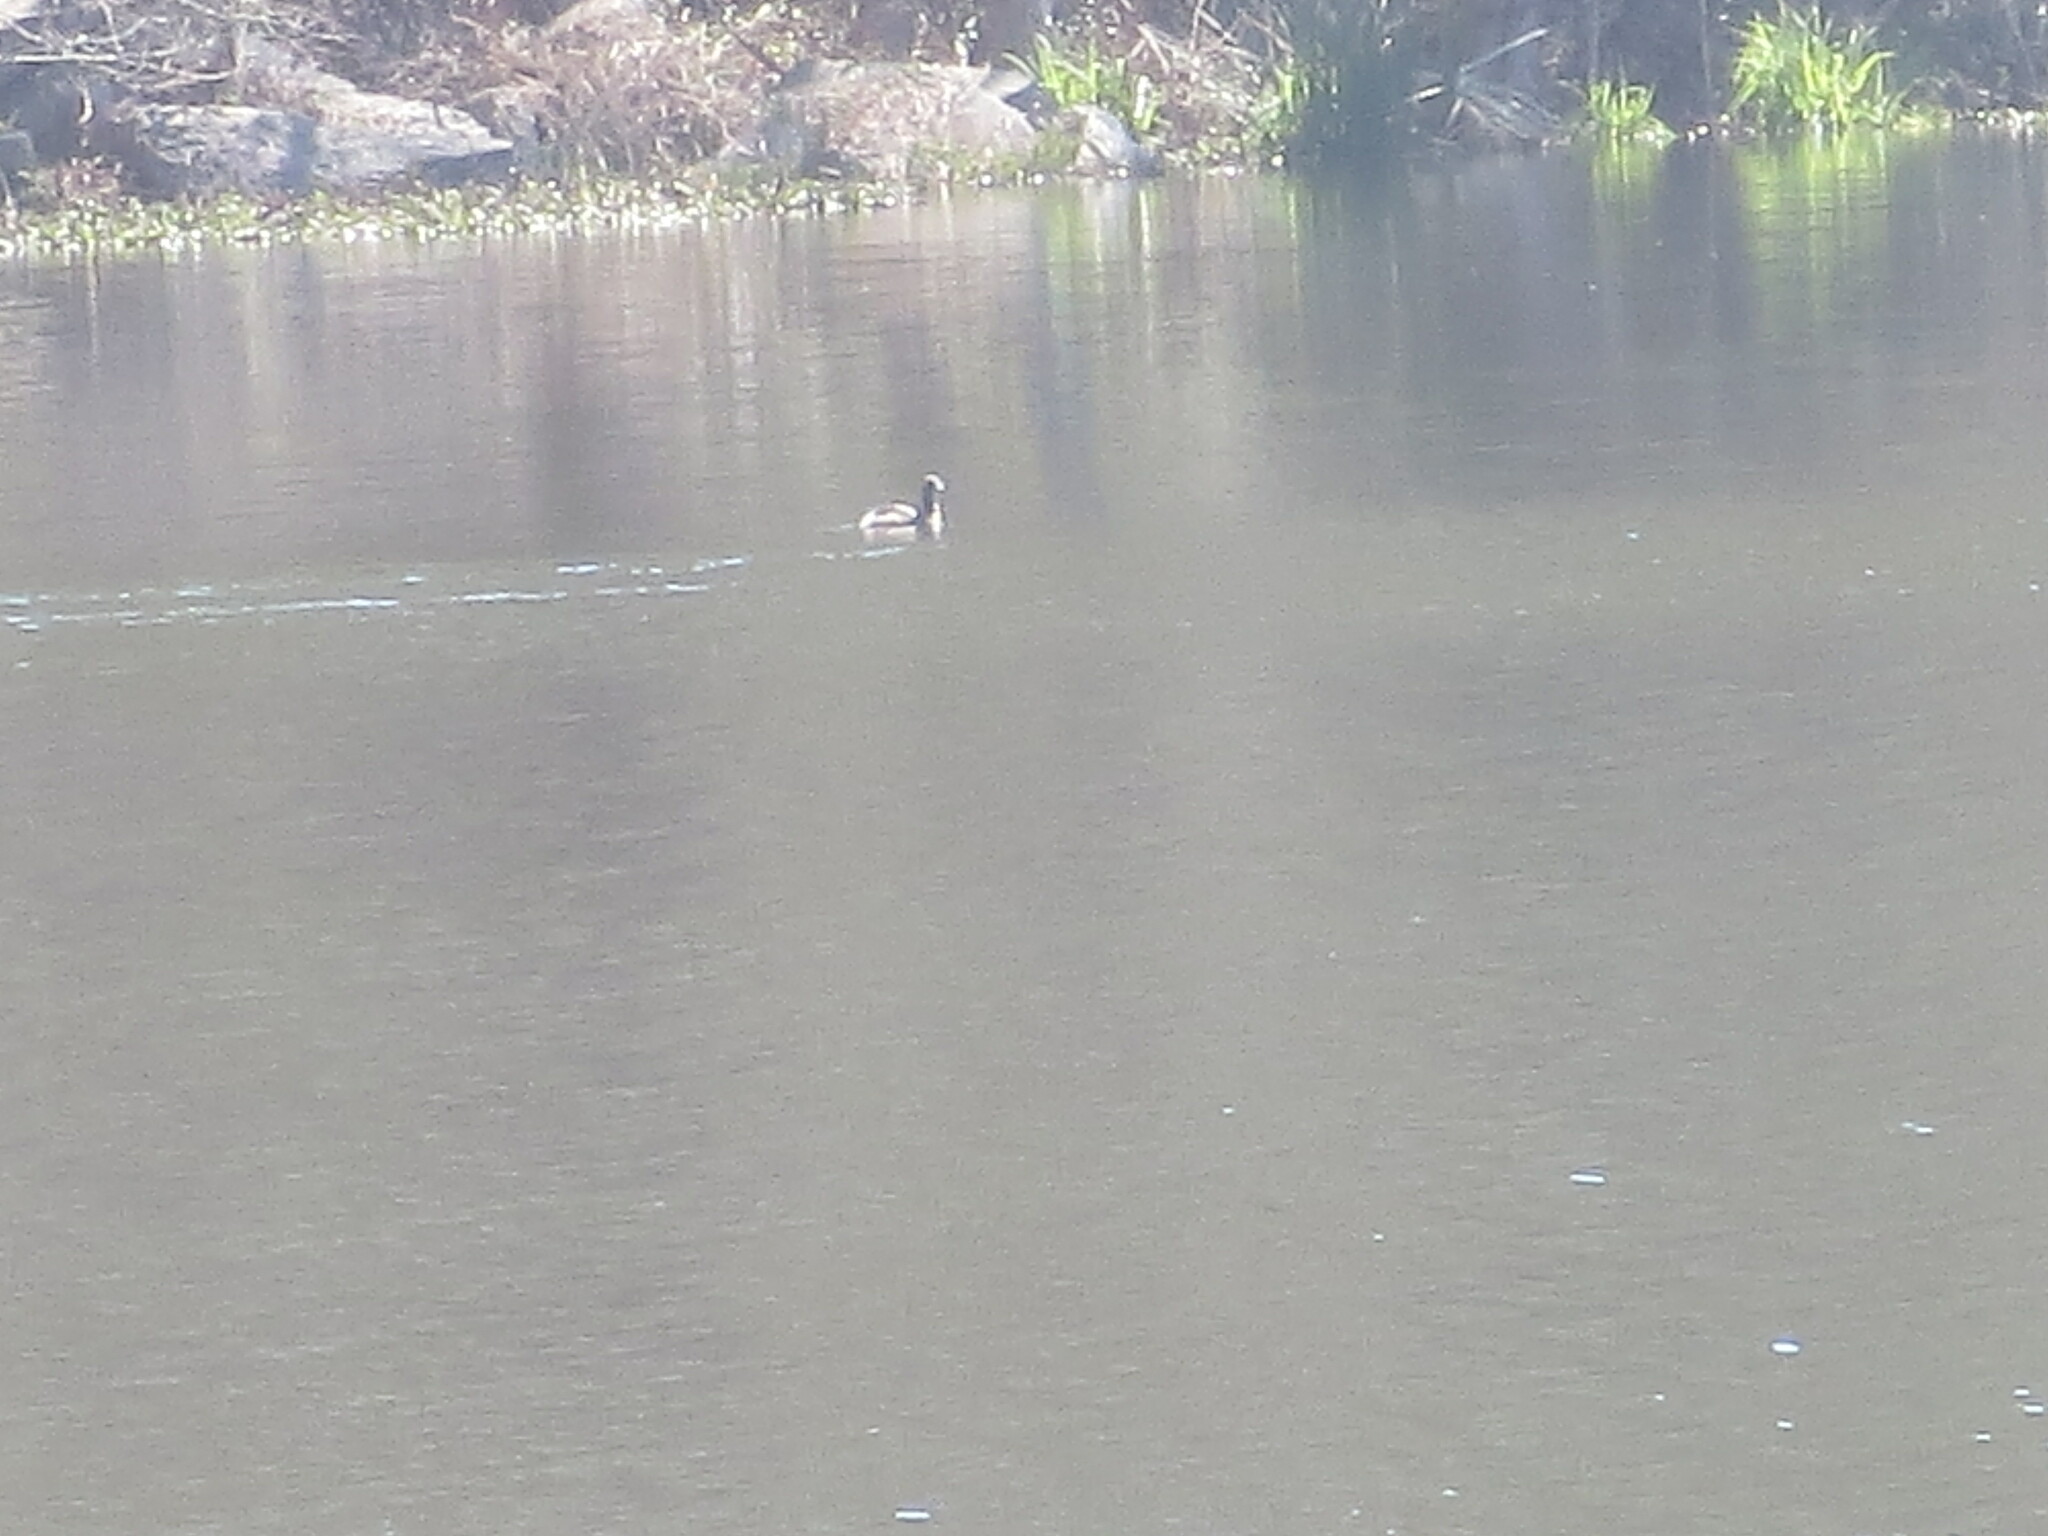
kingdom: Animalia
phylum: Chordata
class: Aves
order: Podicipediformes
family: Podicipedidae
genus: Podilymbus
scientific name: Podilymbus podiceps
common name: Pied-billed grebe
